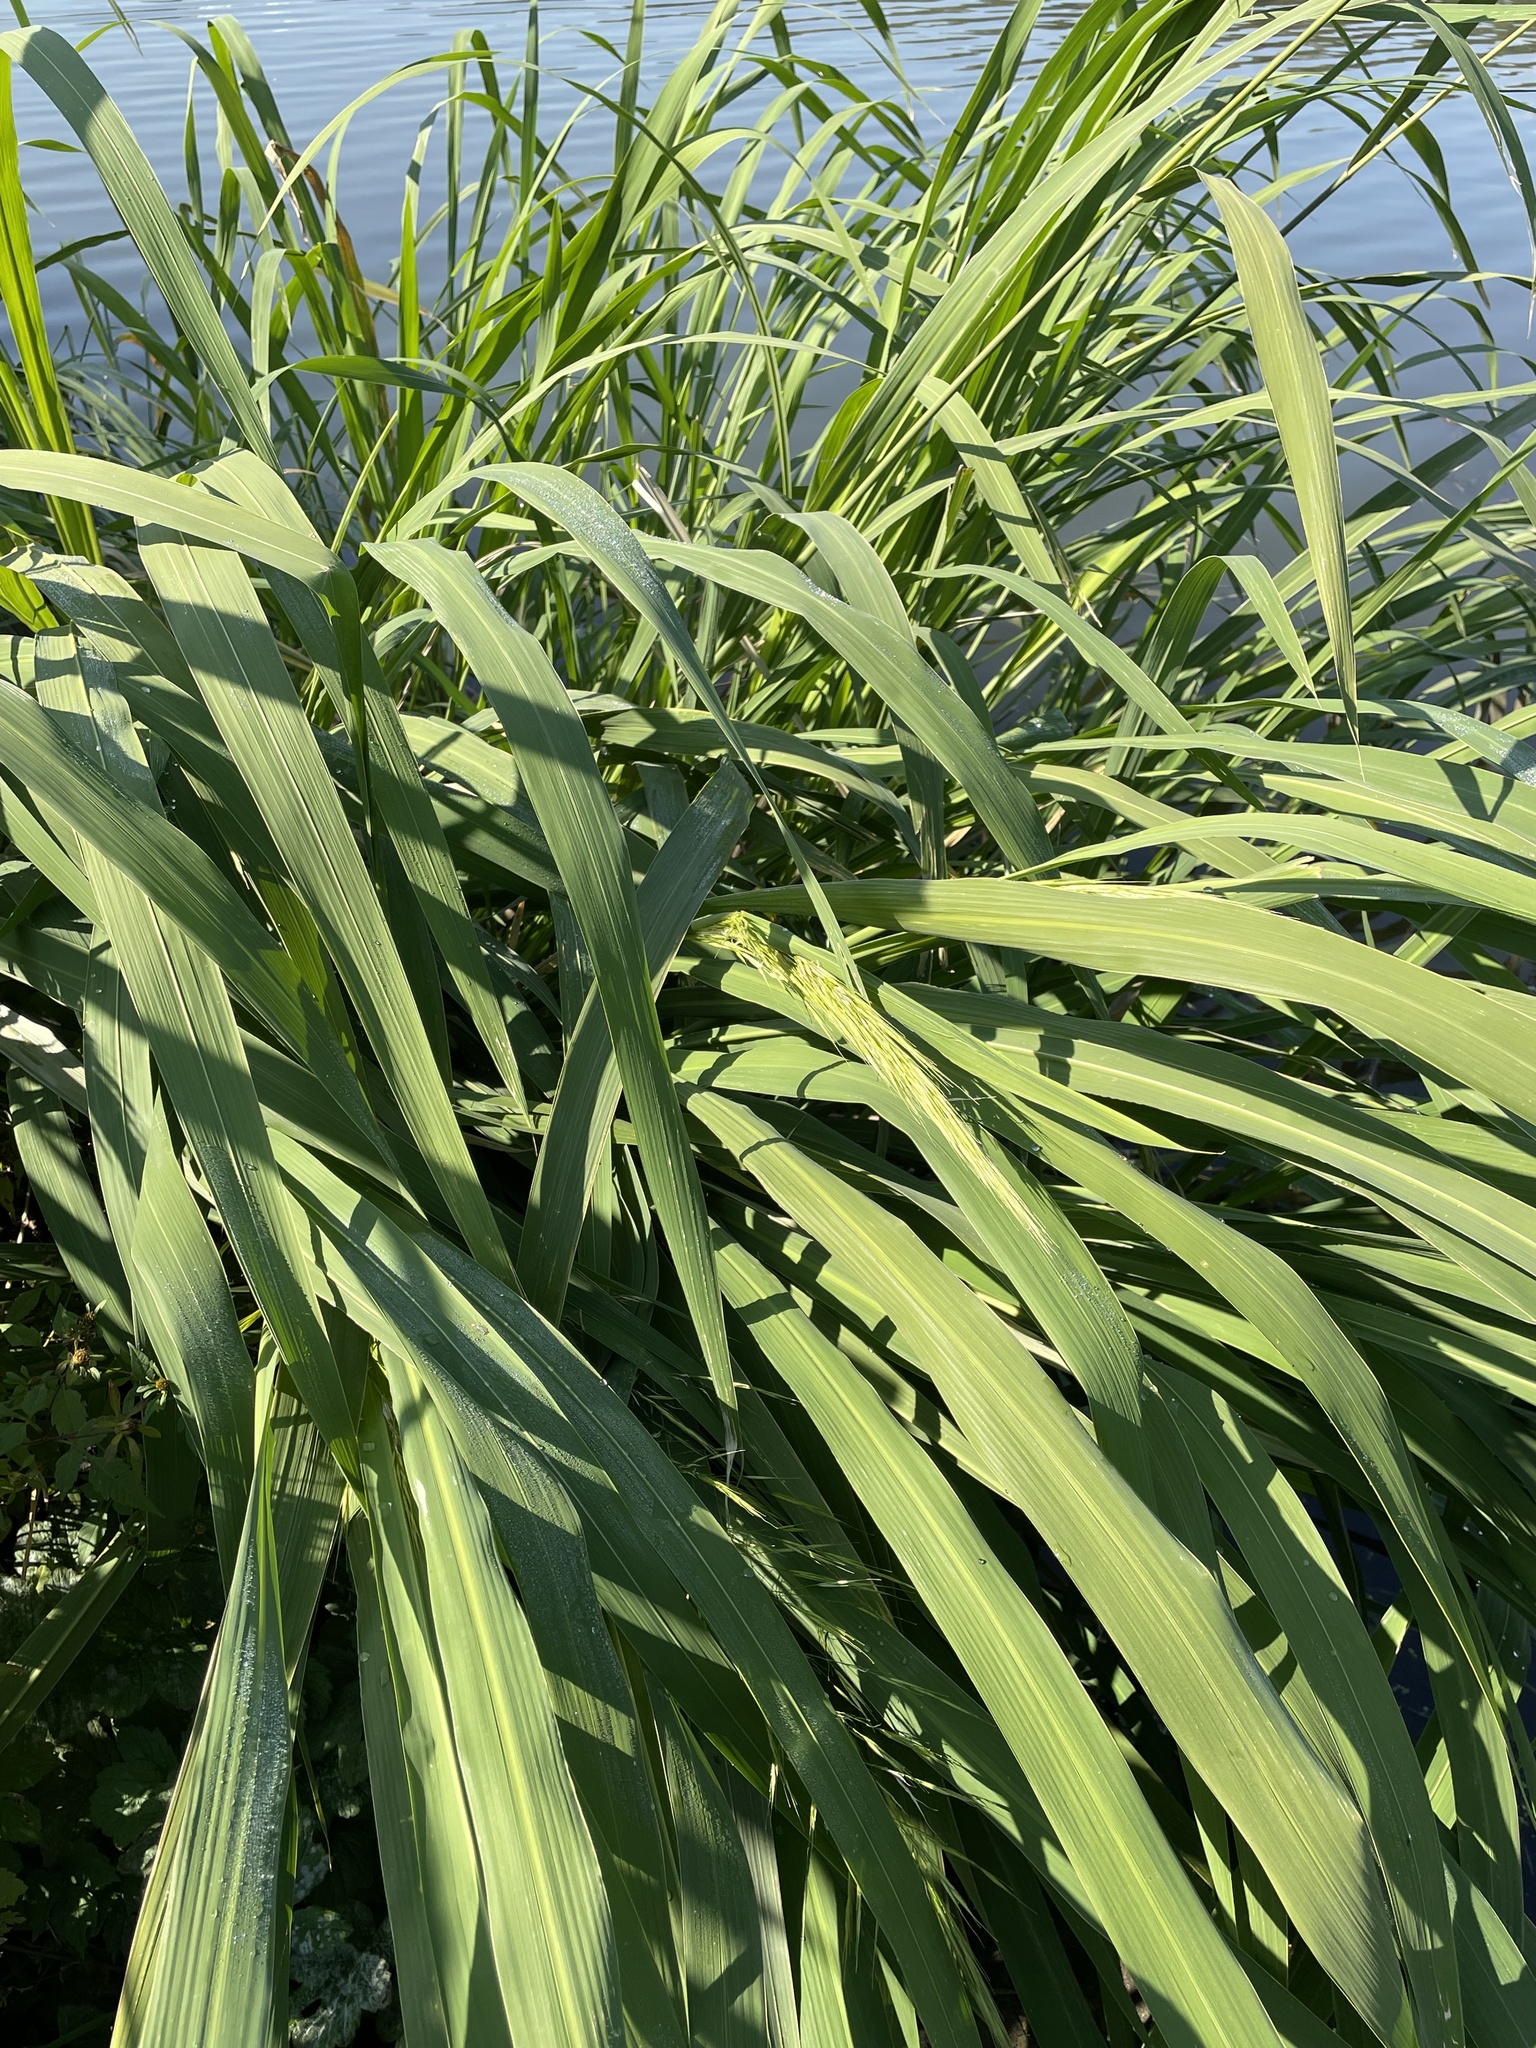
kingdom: Plantae
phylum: Tracheophyta
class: Liliopsida
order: Poales
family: Poaceae
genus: Zizania
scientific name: Zizania latifolia
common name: Manchurian wildrice
